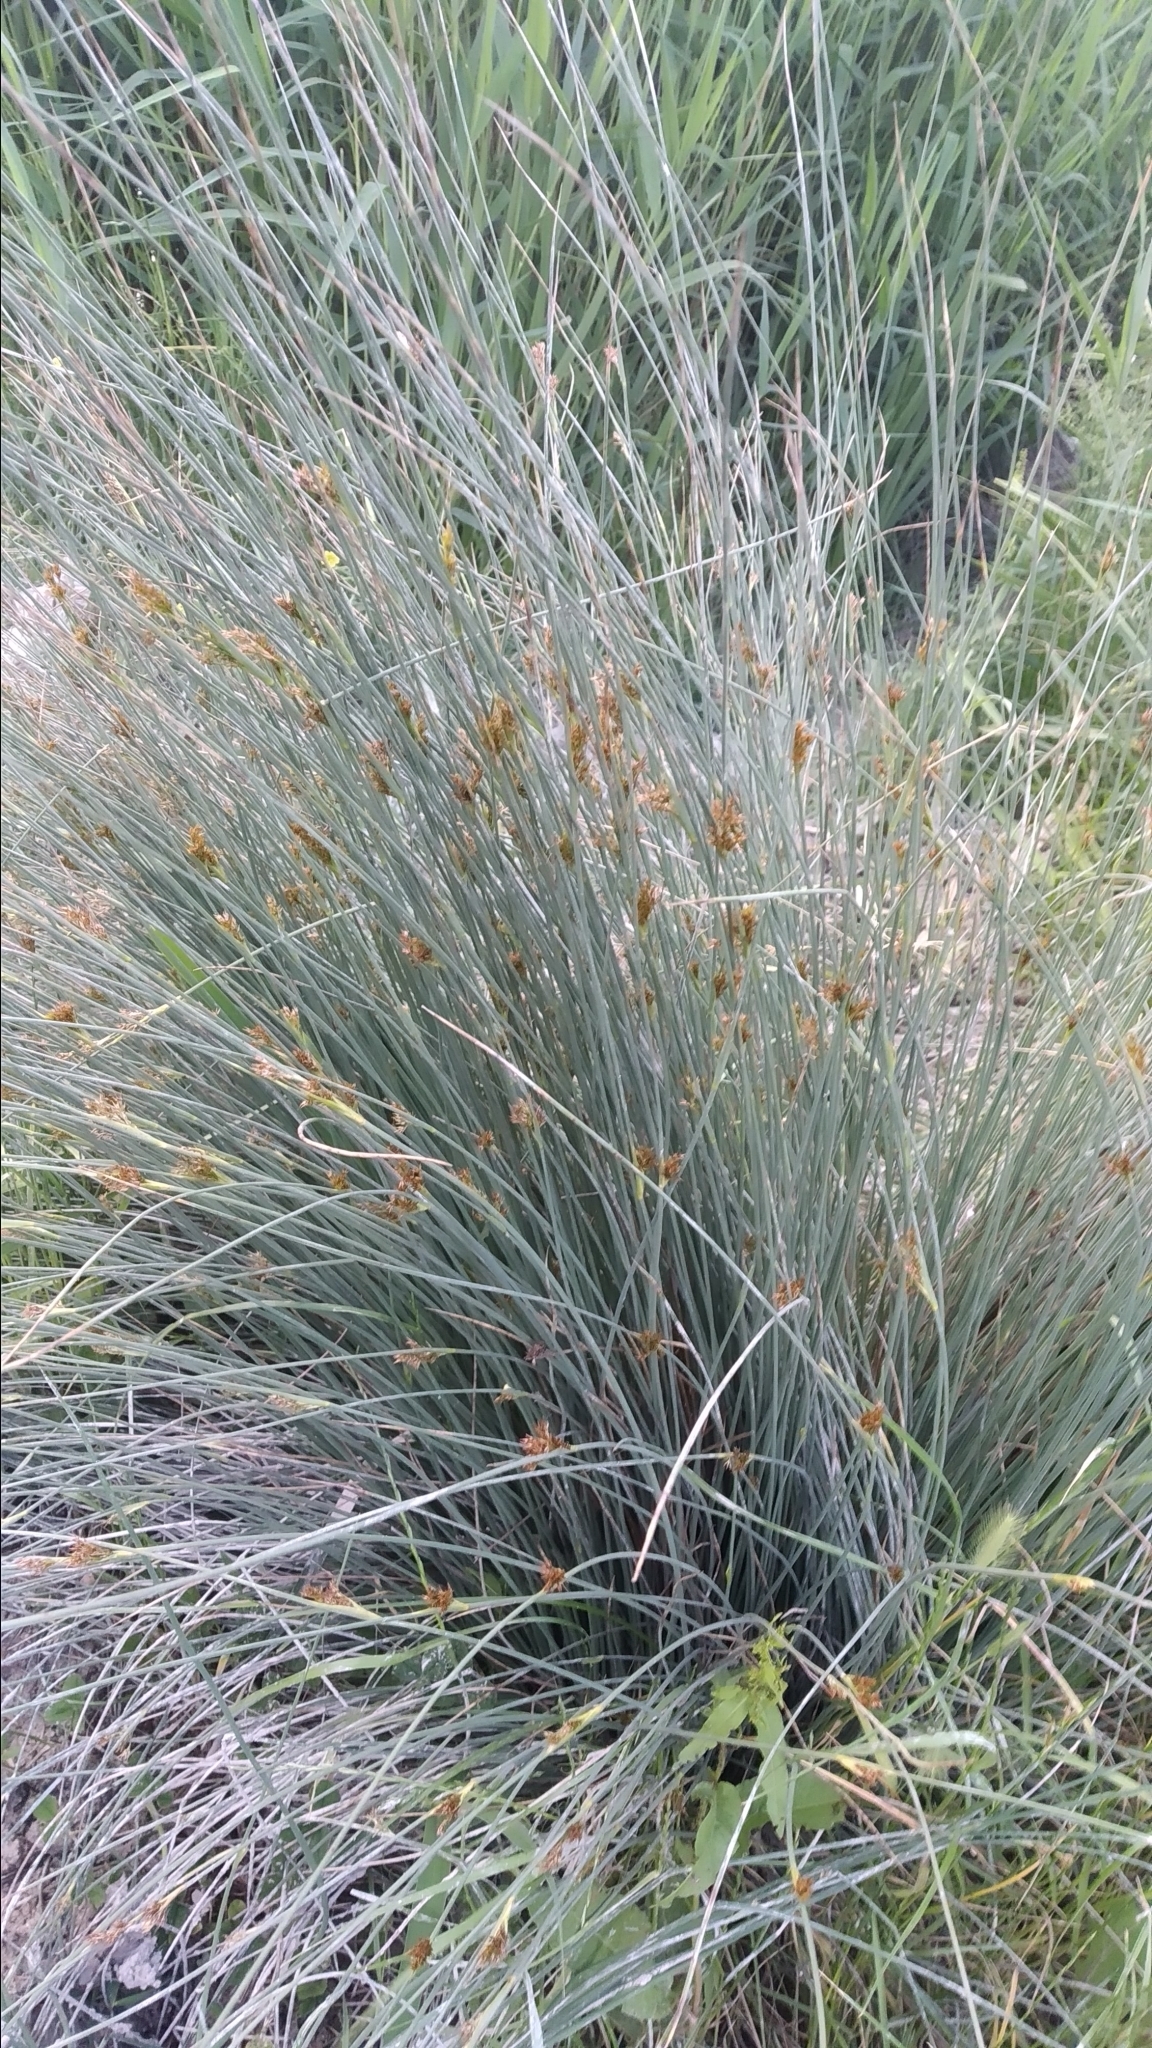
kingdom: Plantae
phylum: Tracheophyta
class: Liliopsida
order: Poales
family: Juncaceae
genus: Juncus
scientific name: Juncus inflexus
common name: Hard rush
